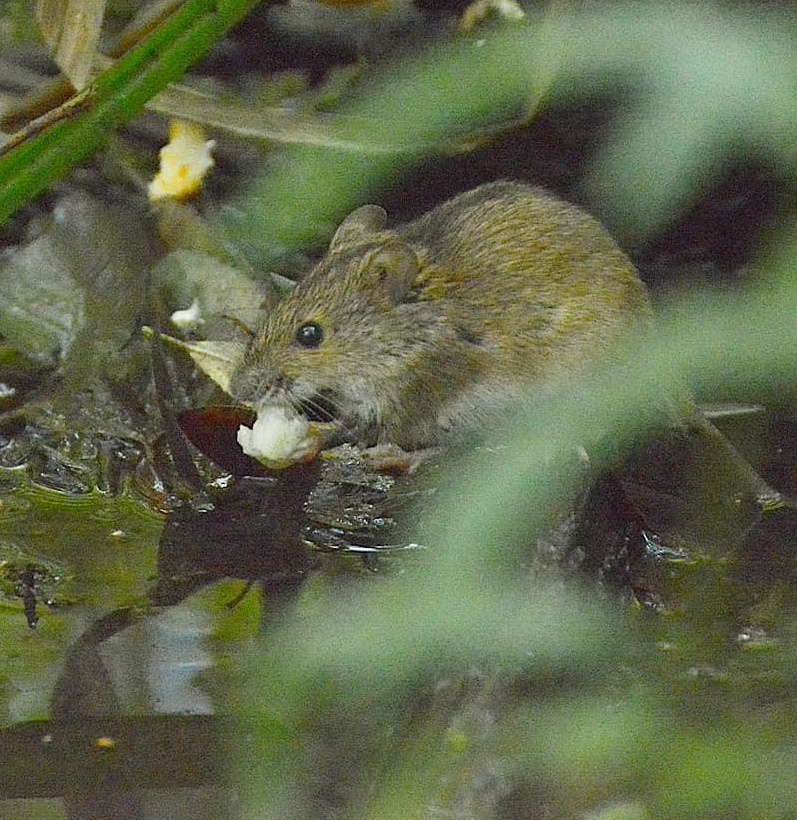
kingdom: Animalia
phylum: Chordata
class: Mammalia
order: Rodentia
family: Muridae
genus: Apodemus
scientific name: Apodemus agrarius
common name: Striped field mouse
